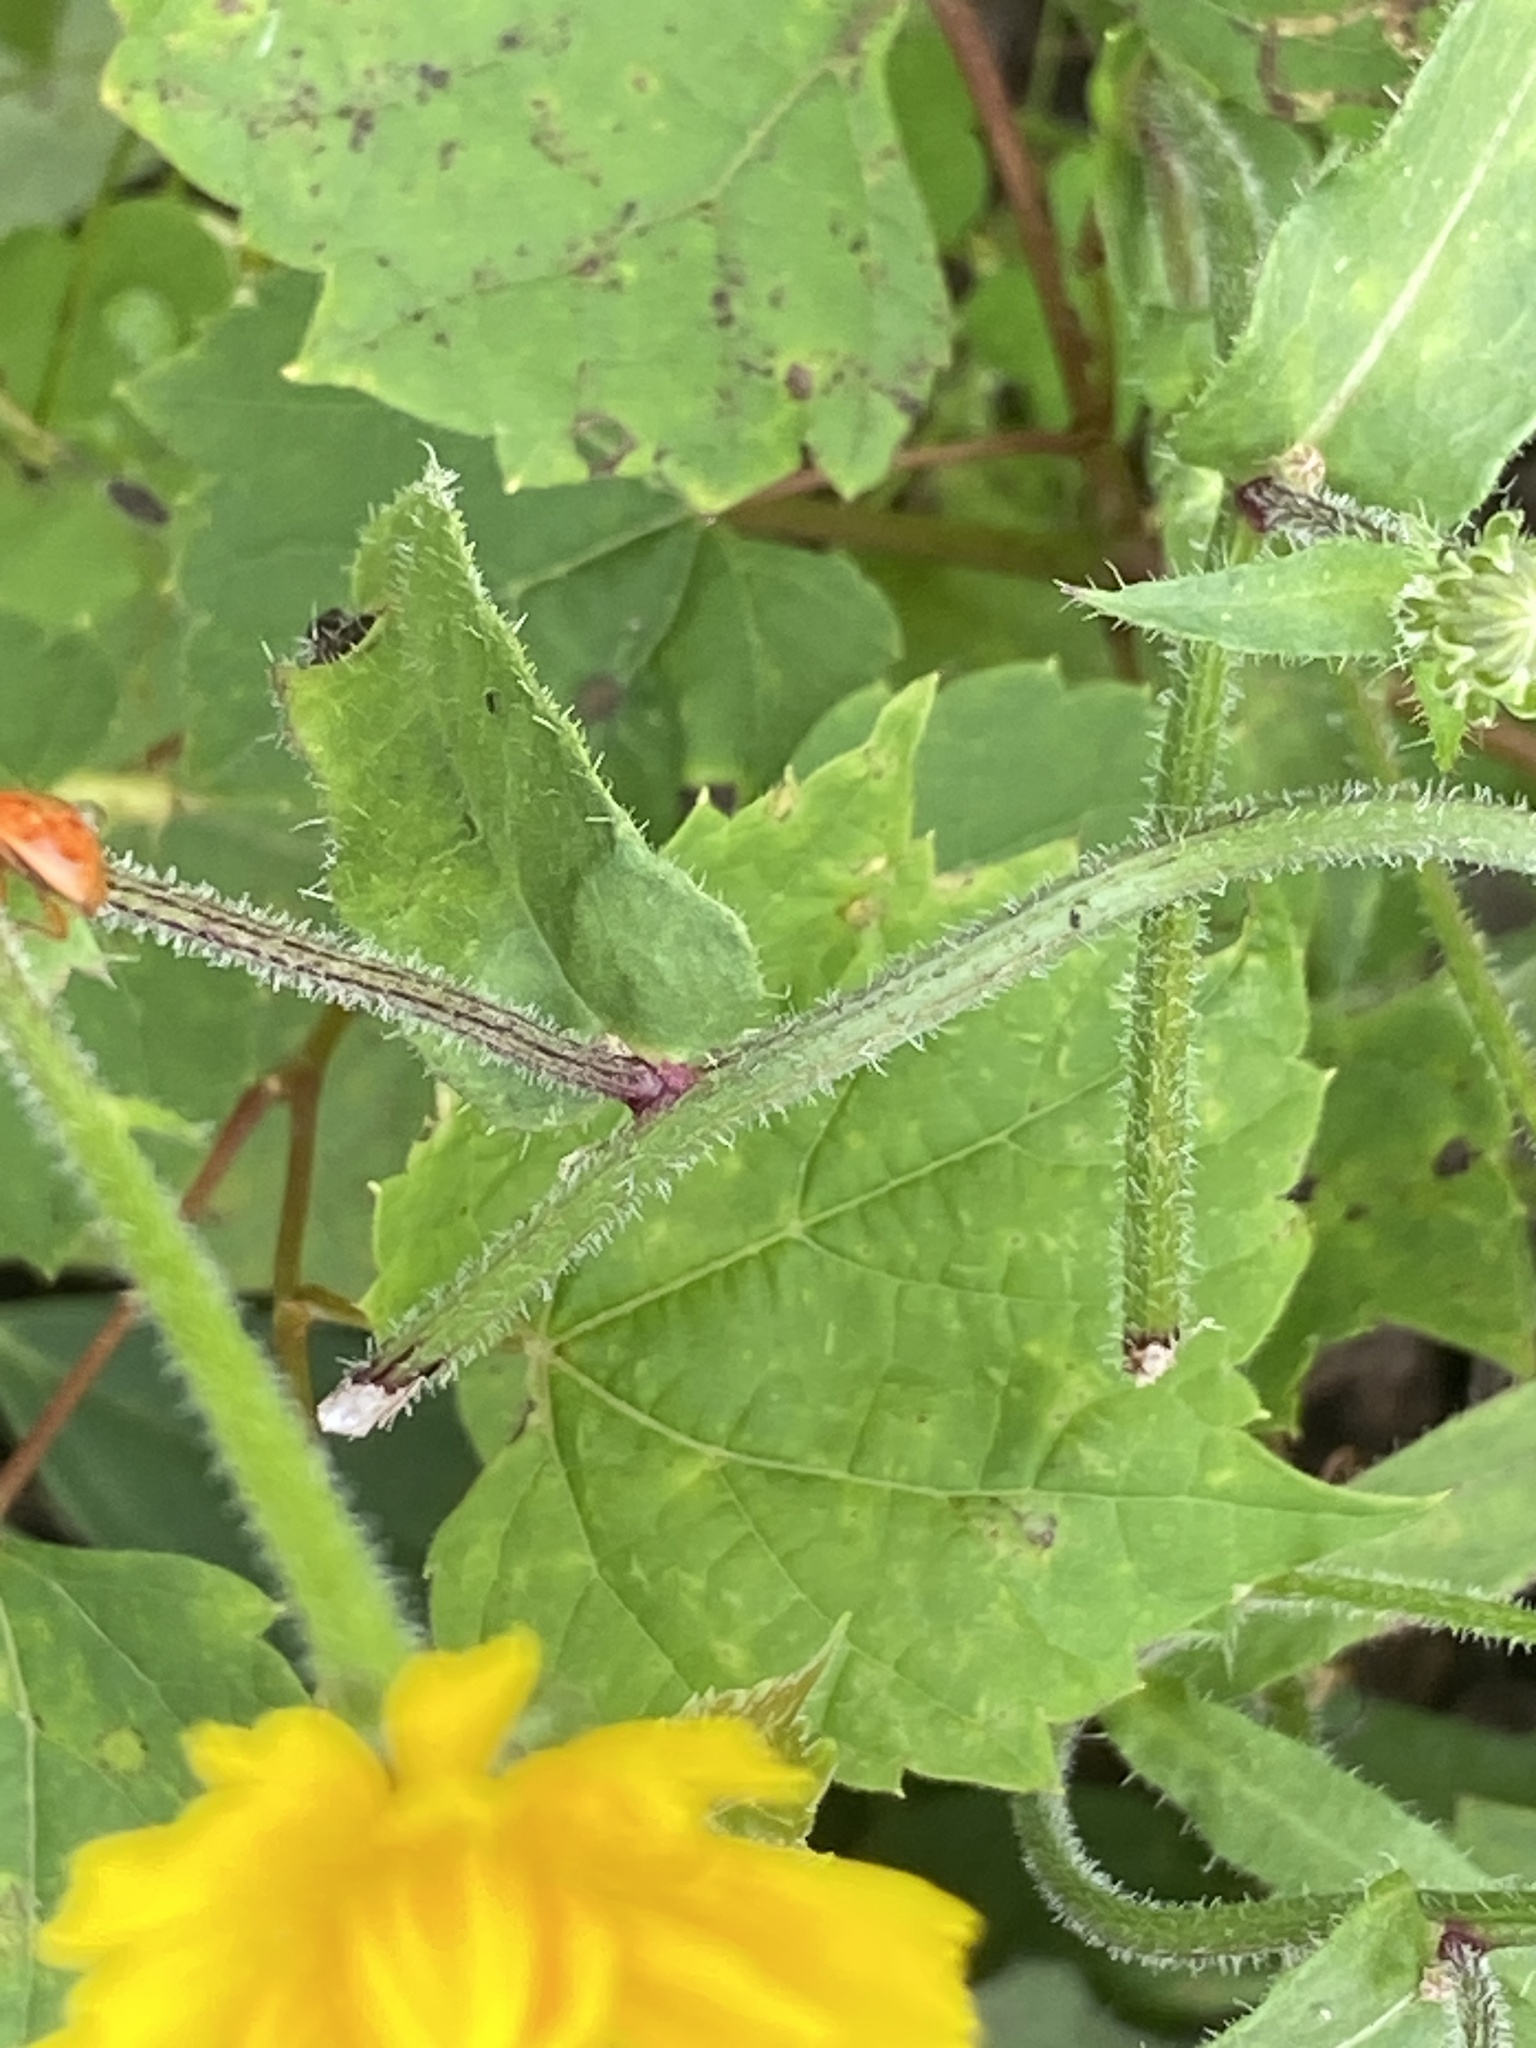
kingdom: Plantae
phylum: Tracheophyta
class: Magnoliopsida
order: Asterales
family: Asteraceae
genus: Picris
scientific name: Picris hieracioides
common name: Hawkweed oxtongue
